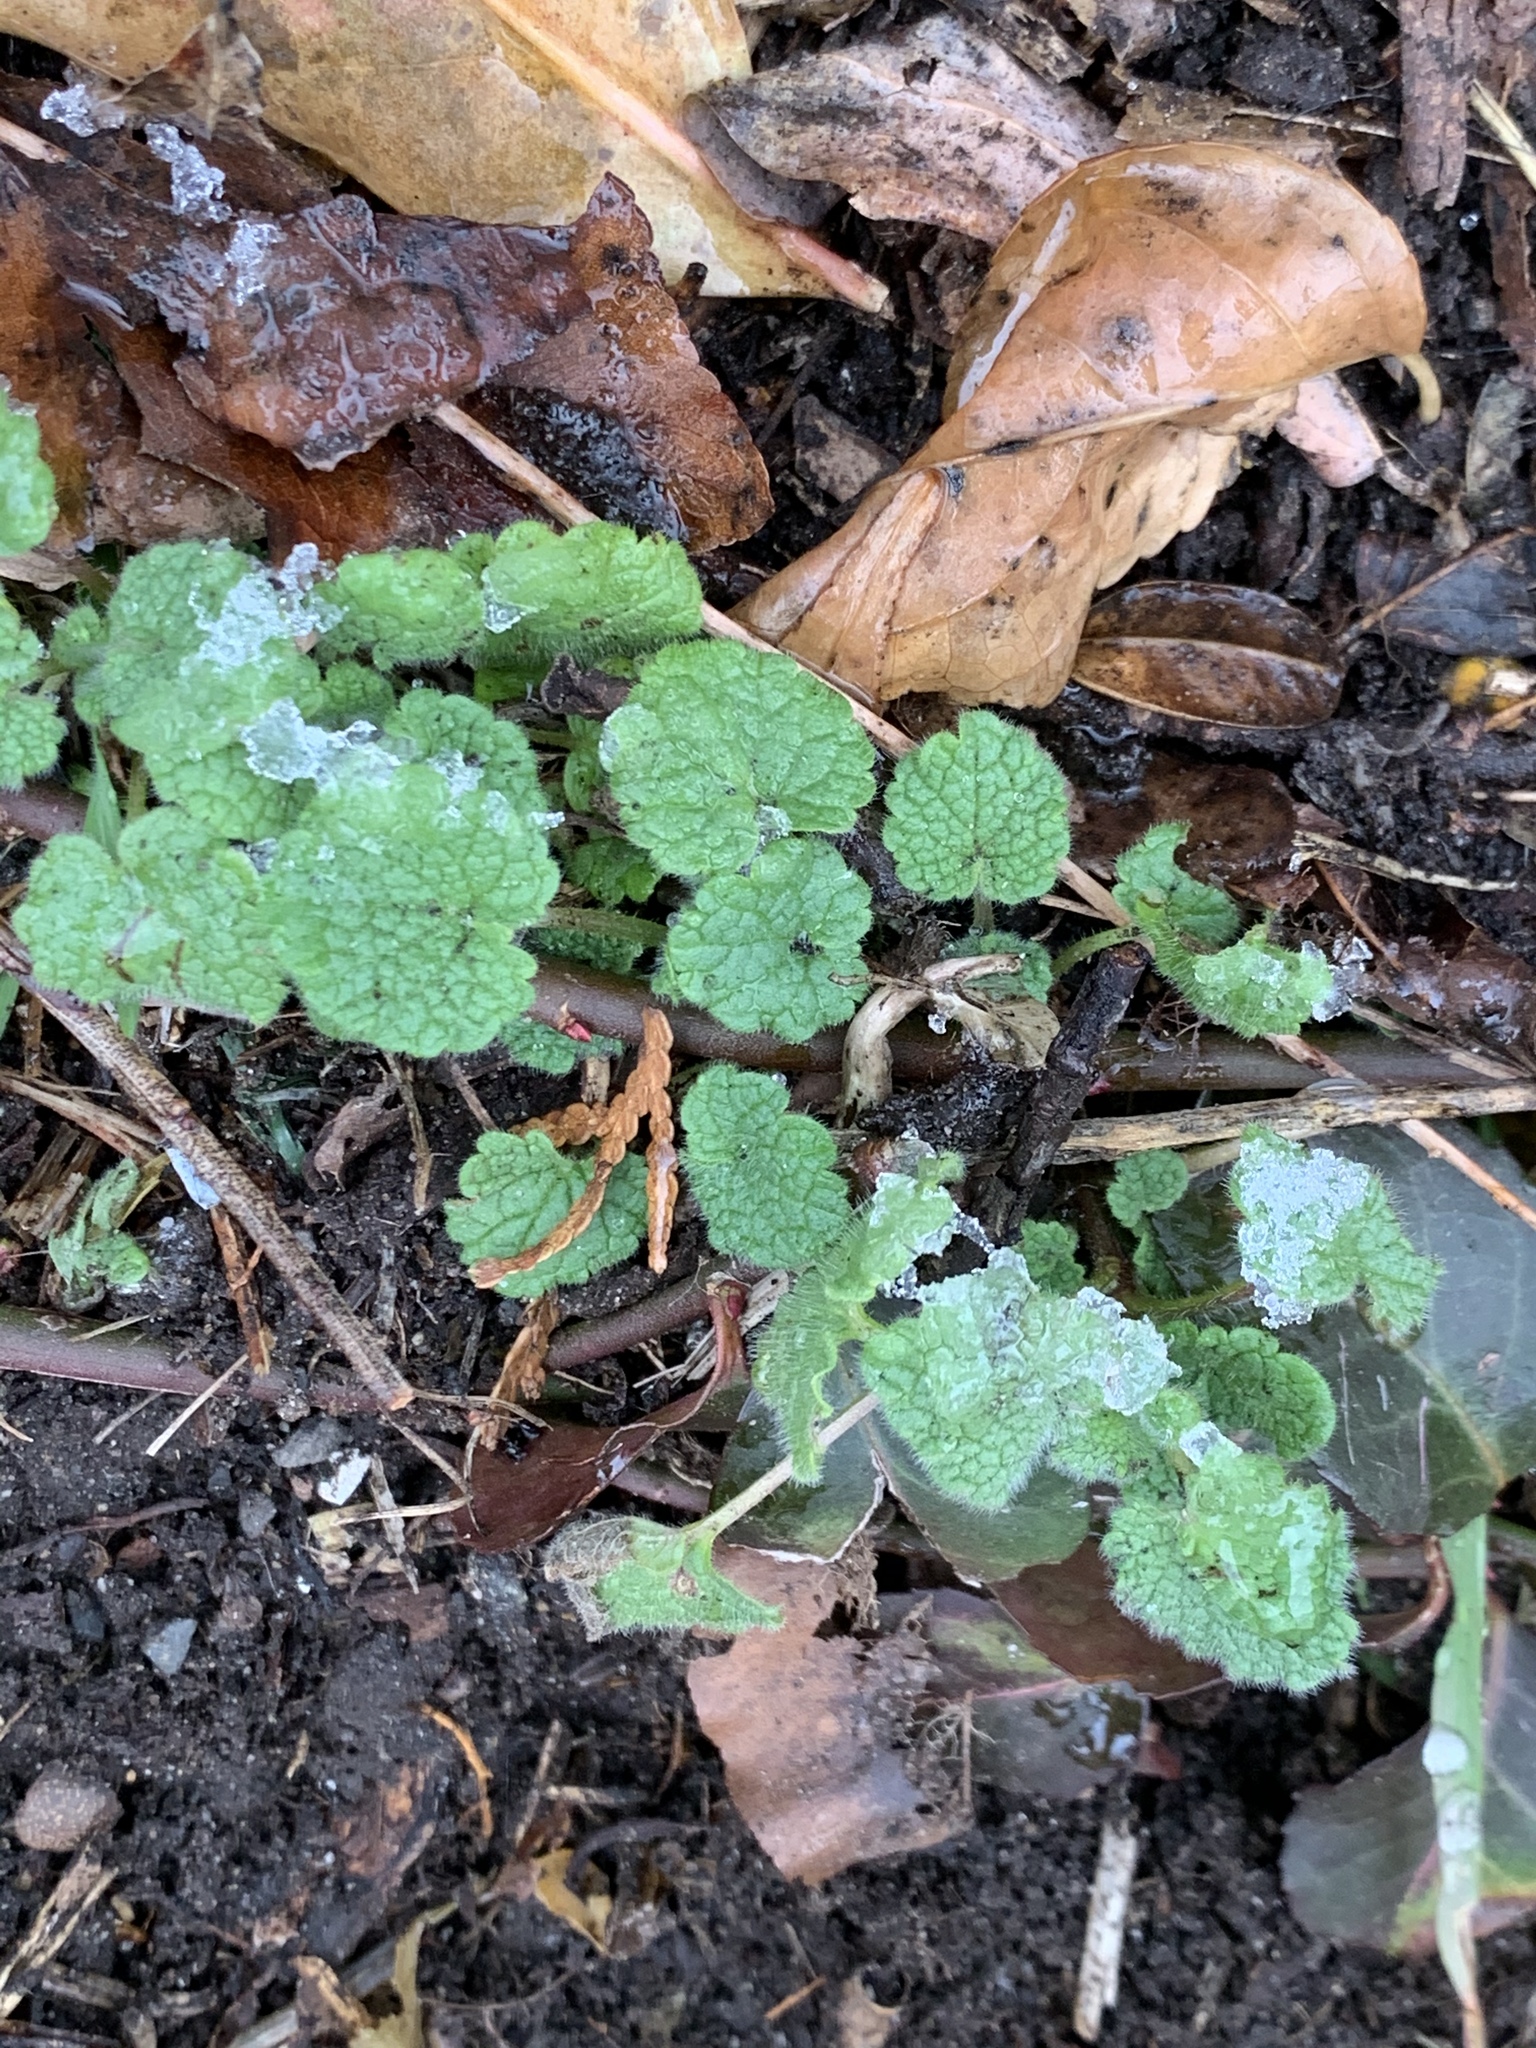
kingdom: Plantae
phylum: Tracheophyta
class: Magnoliopsida
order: Lamiales
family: Lamiaceae
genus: Lamium
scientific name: Lamium purpureum
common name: Red dead-nettle
